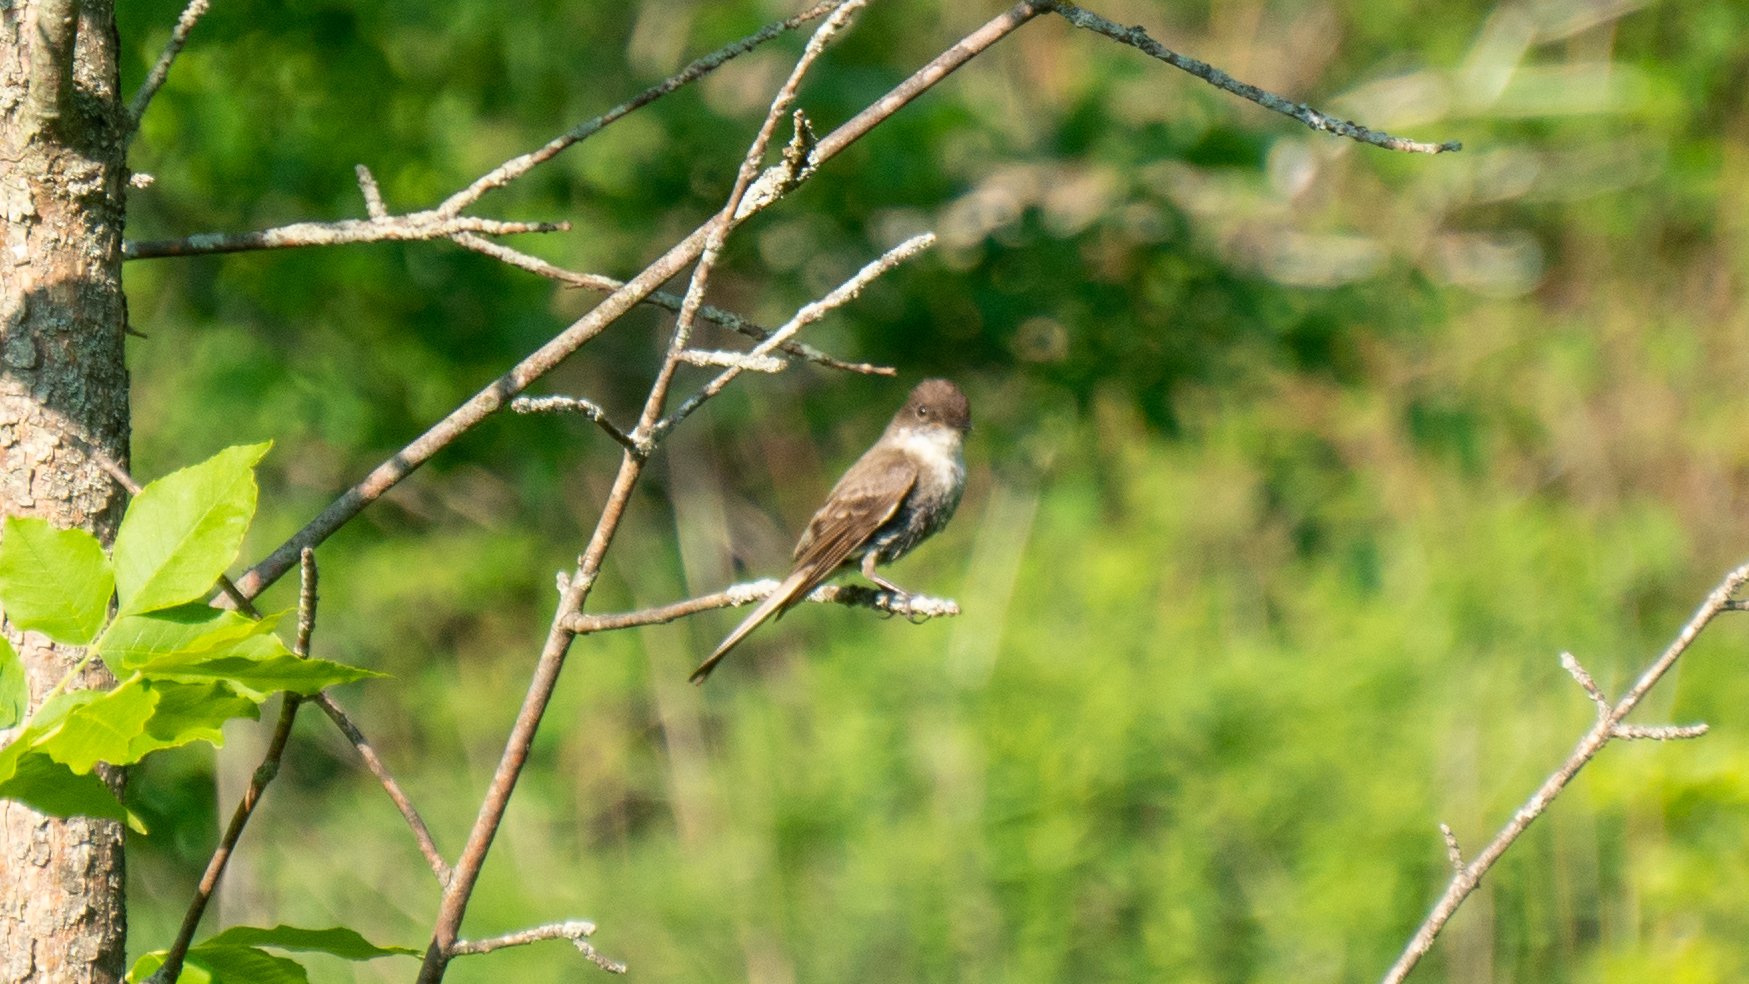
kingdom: Animalia
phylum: Chordata
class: Aves
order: Passeriformes
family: Tyrannidae
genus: Sayornis
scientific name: Sayornis phoebe
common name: Eastern phoebe
